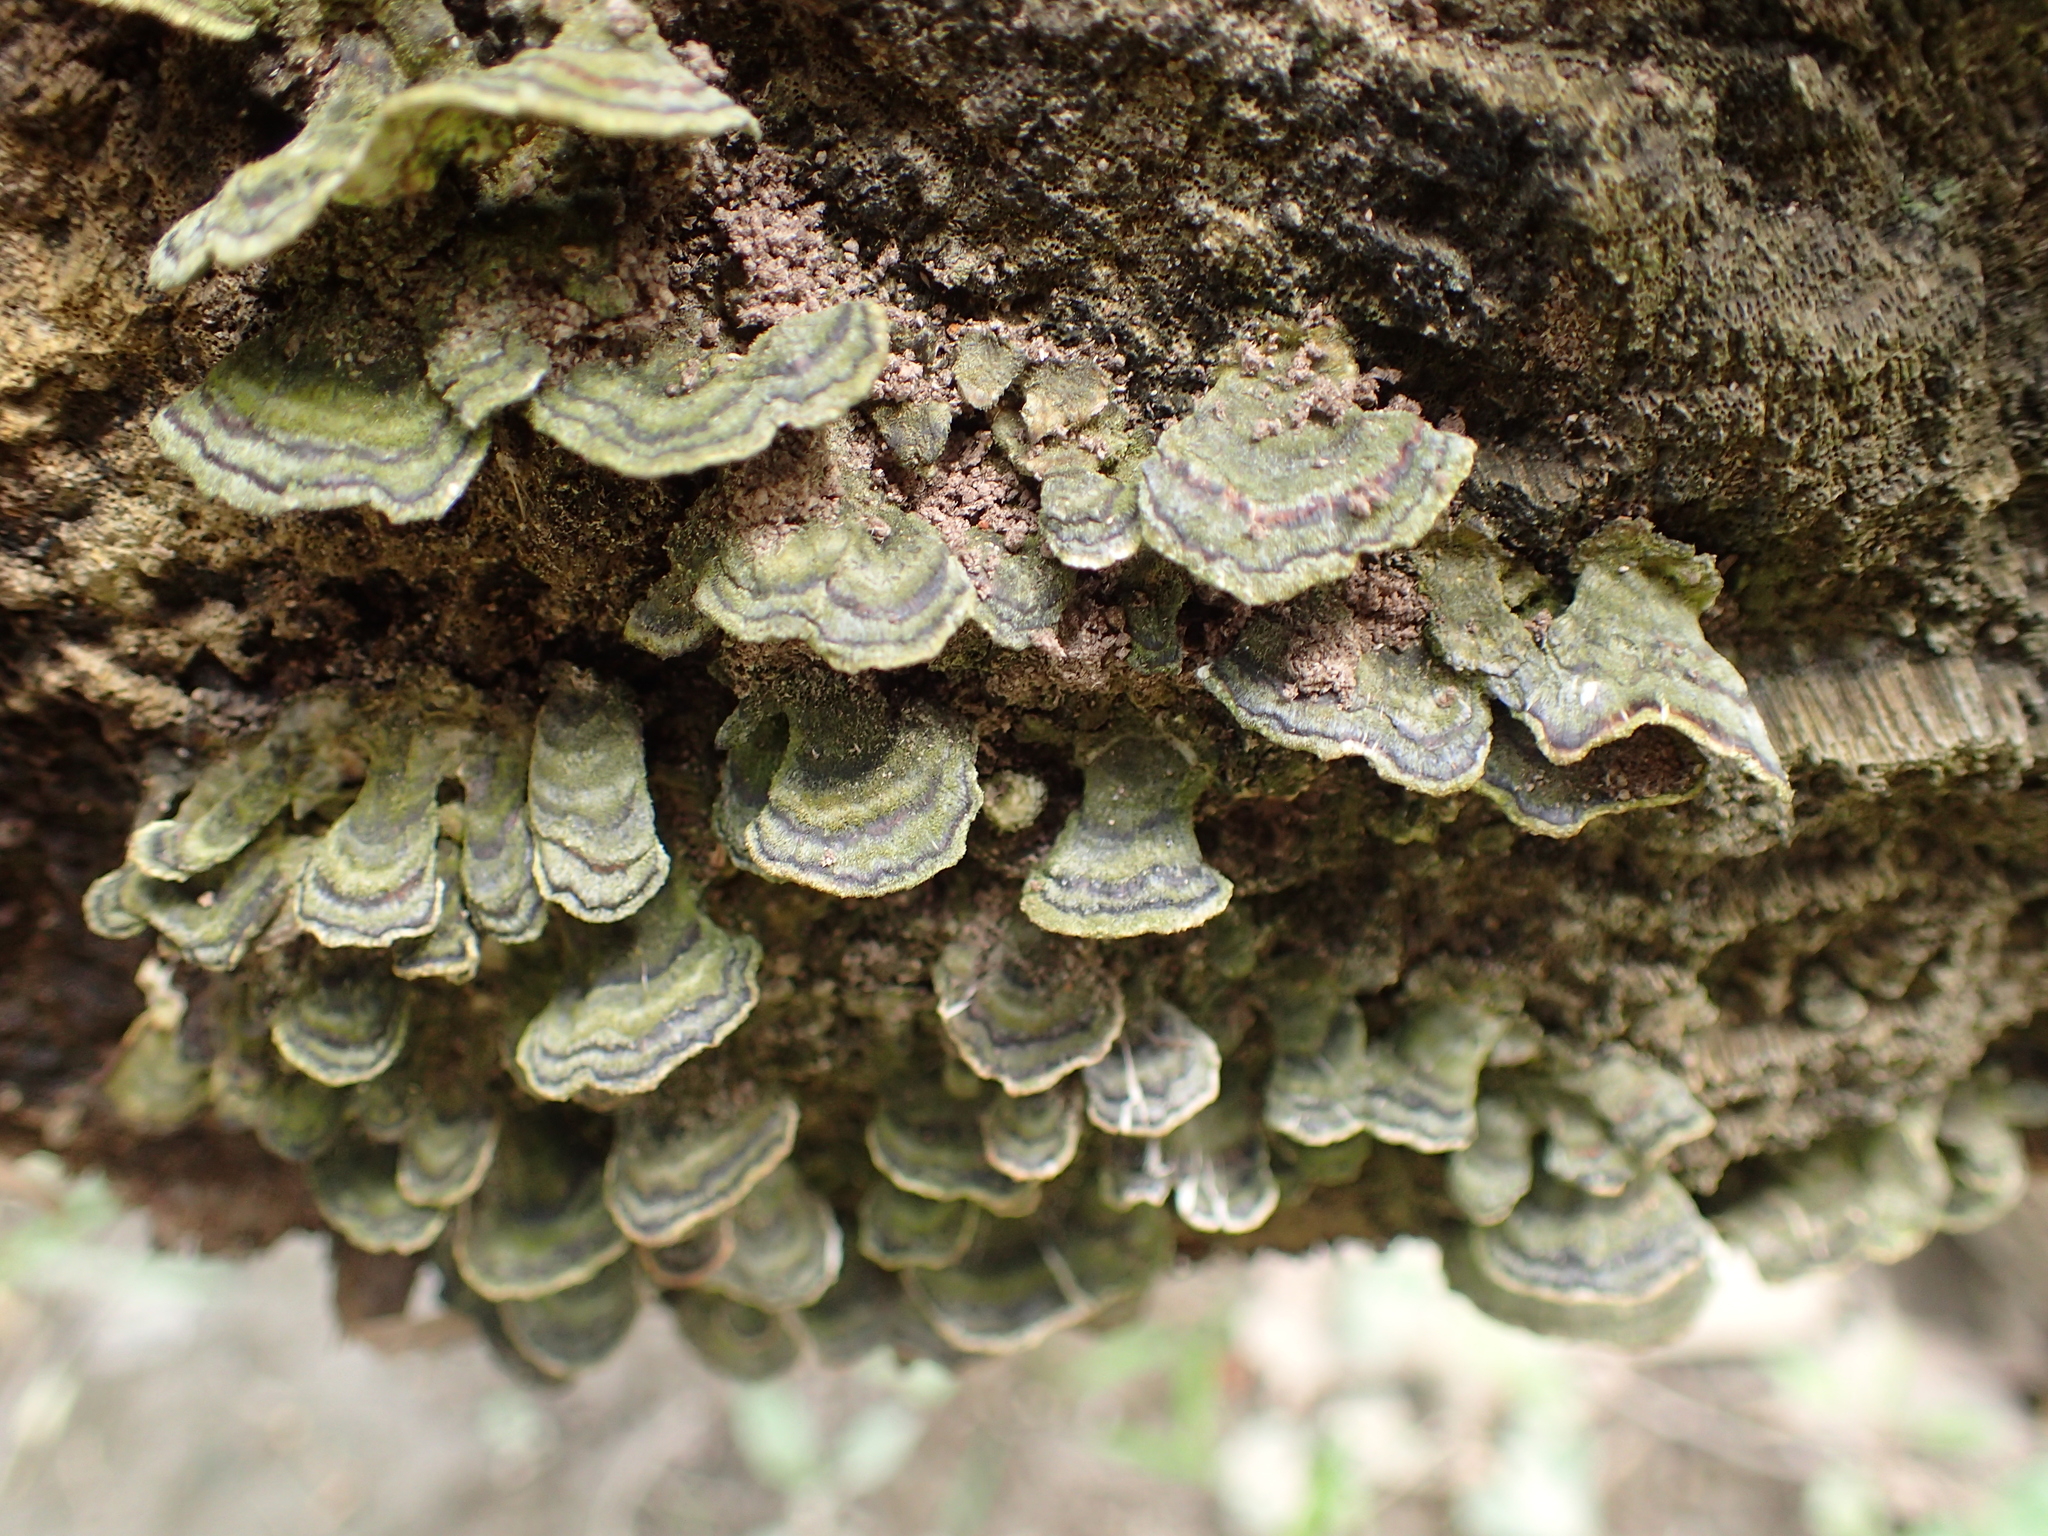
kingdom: Fungi
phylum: Basidiomycota
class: Agaricomycetes
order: Polyporales
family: Polyporaceae
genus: Trametes
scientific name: Trametes versicolor
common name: Turkeytail
